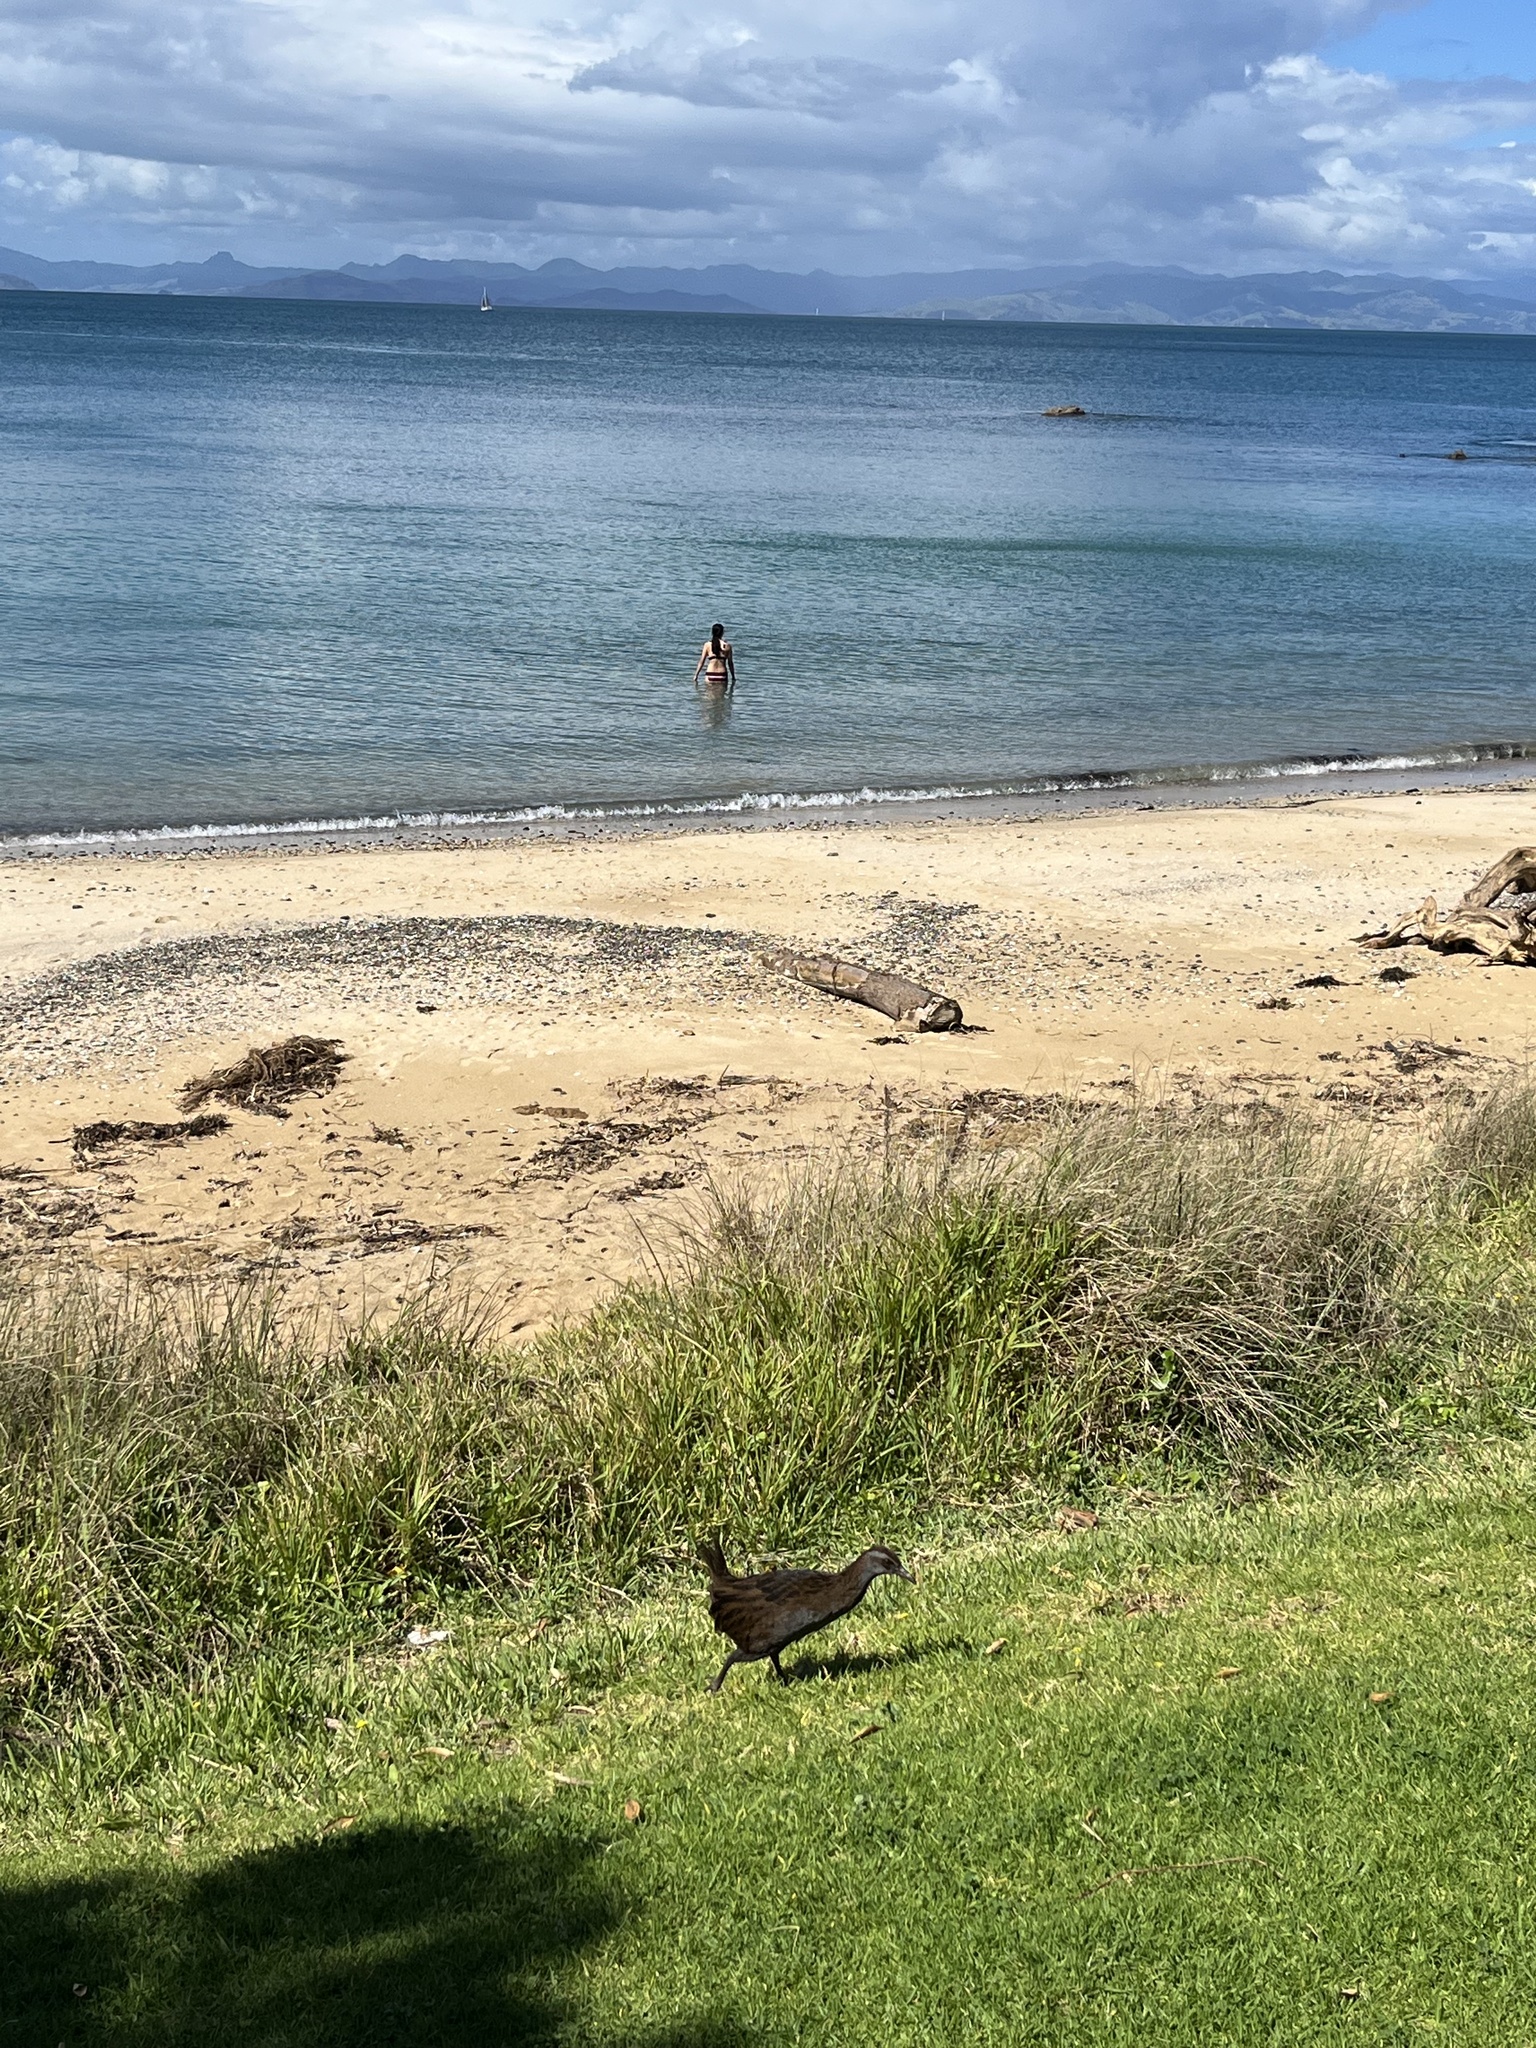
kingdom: Animalia
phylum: Chordata
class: Aves
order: Gruiformes
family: Rallidae
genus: Gallirallus
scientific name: Gallirallus australis
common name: Weka
